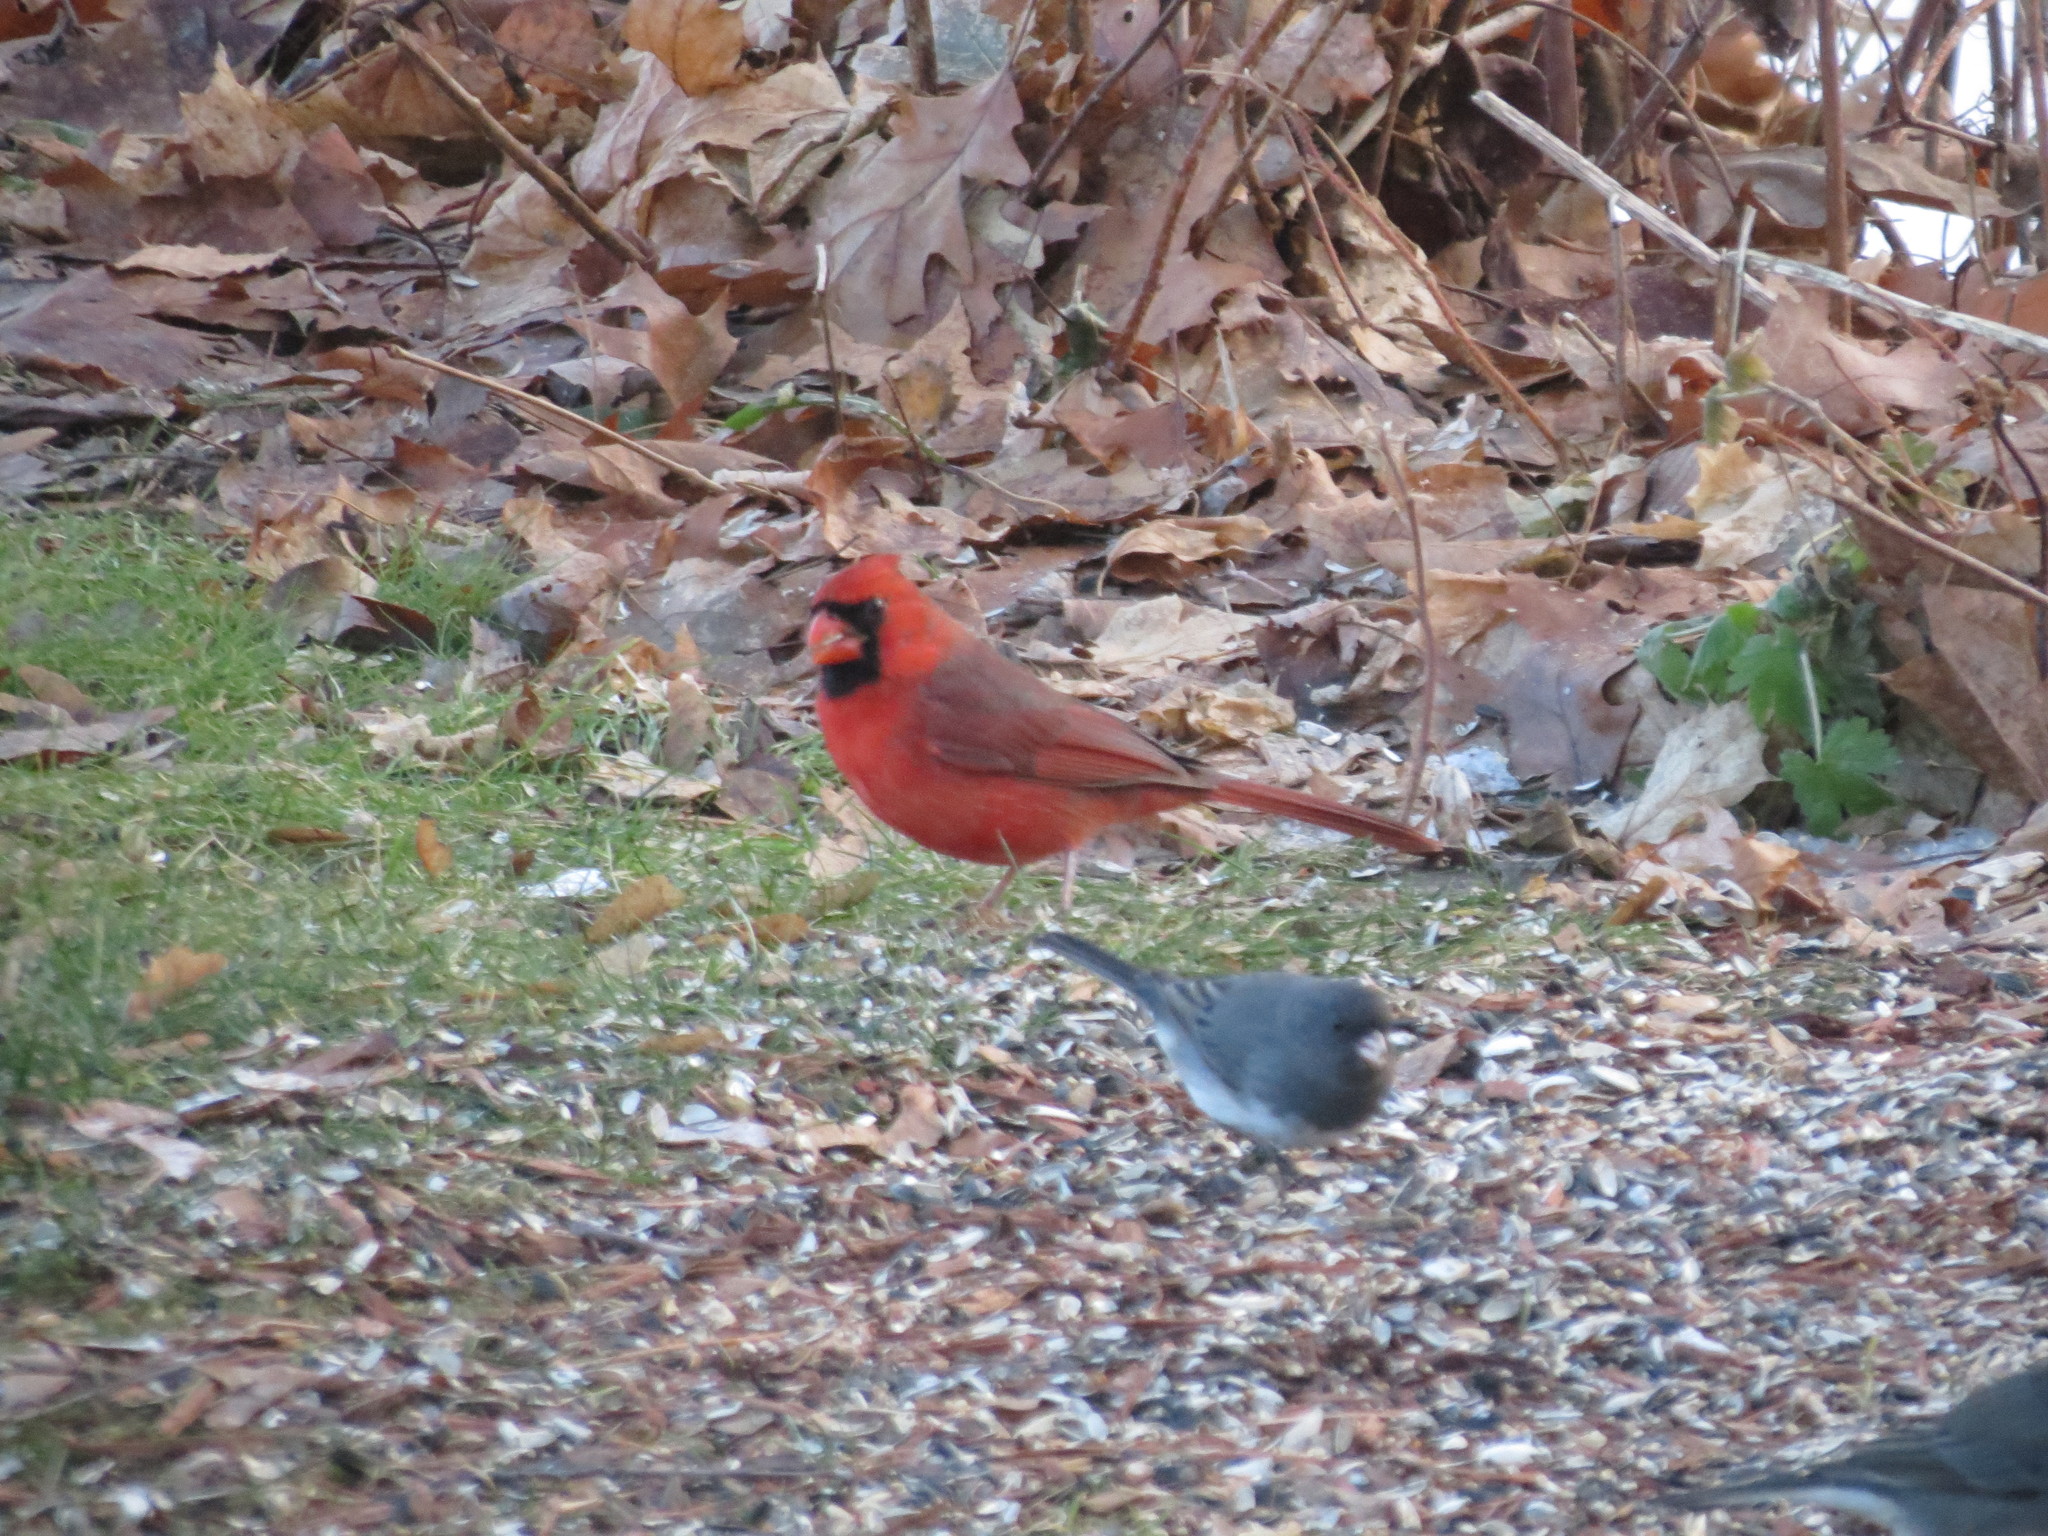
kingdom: Animalia
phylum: Chordata
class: Aves
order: Passeriformes
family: Cardinalidae
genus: Cardinalis
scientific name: Cardinalis cardinalis
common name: Northern cardinal
